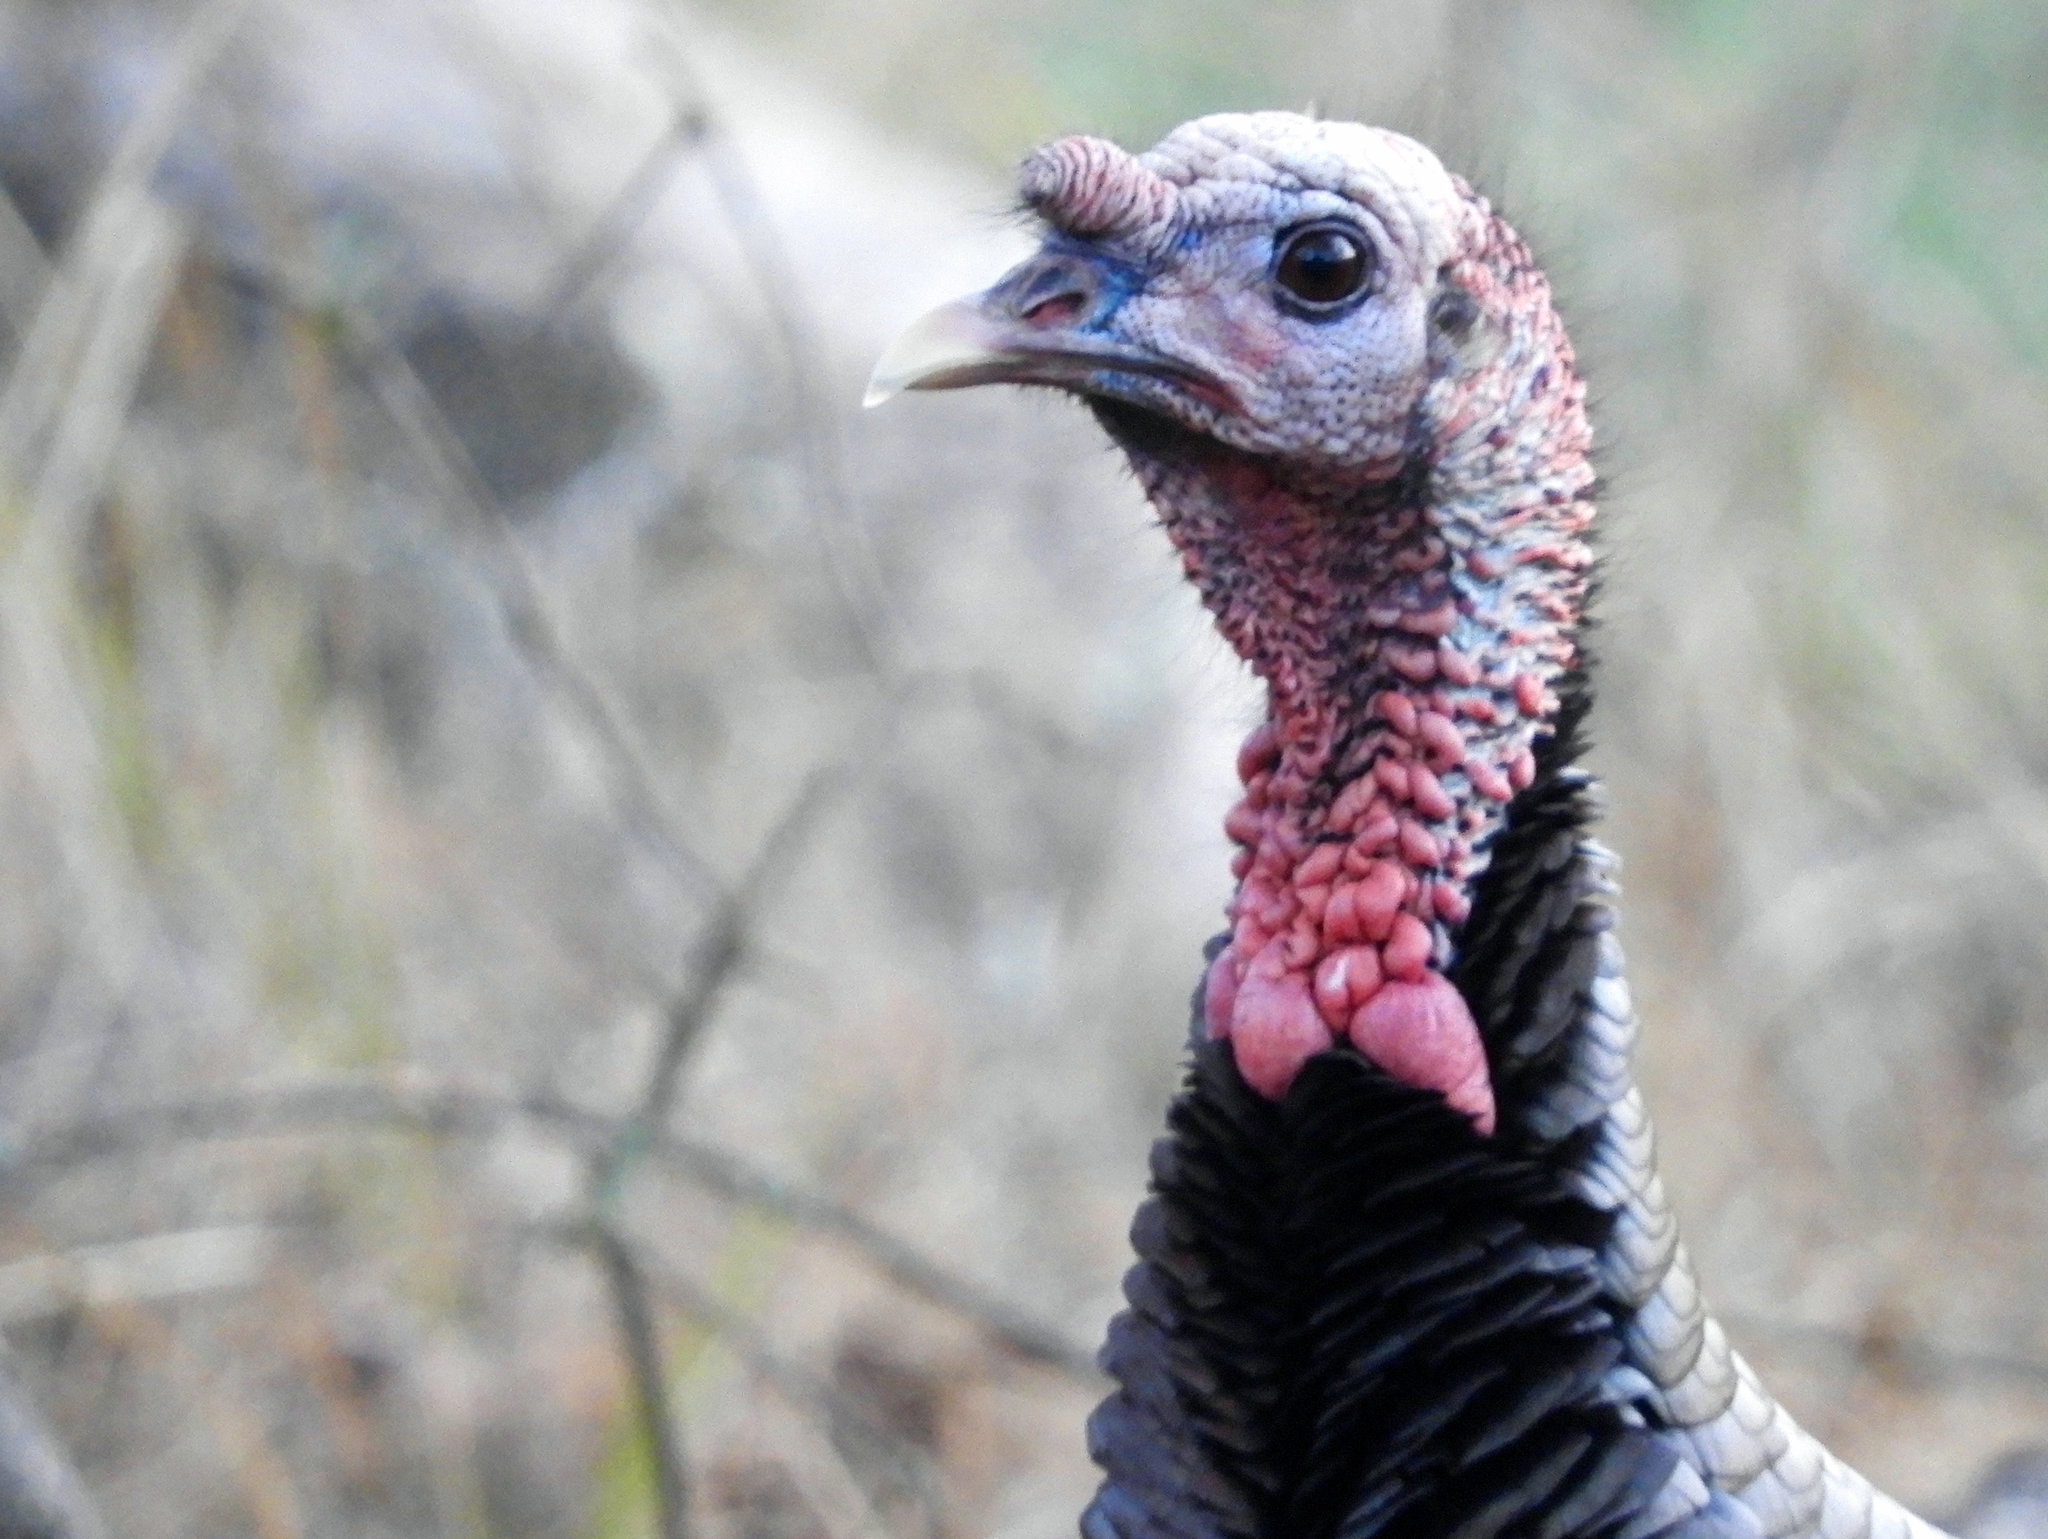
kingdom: Animalia
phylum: Chordata
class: Aves
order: Galliformes
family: Phasianidae
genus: Meleagris
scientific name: Meleagris gallopavo
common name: Wild turkey
